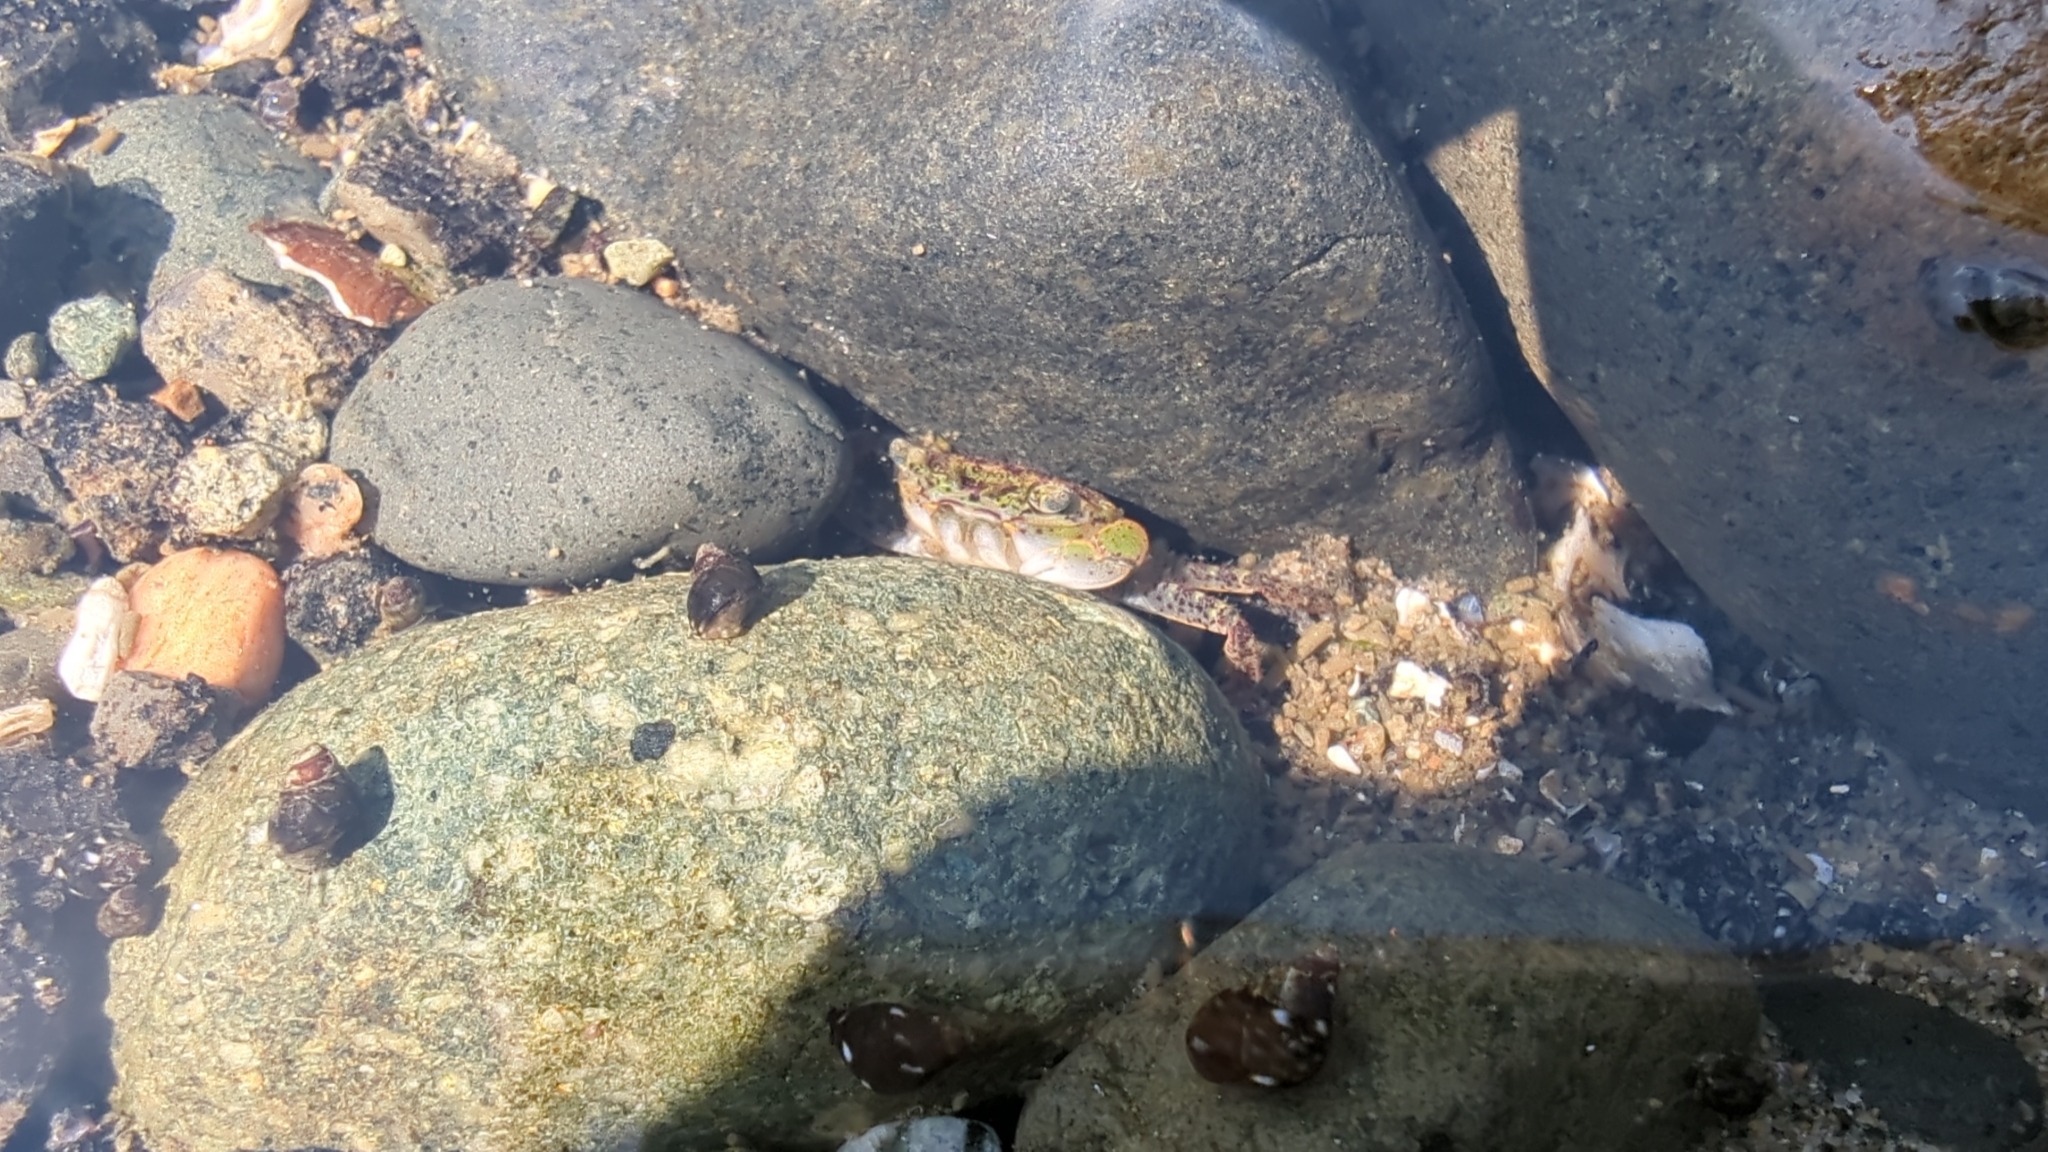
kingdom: Animalia
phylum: Arthropoda
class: Malacostraca
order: Decapoda
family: Varunidae
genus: Hemigrapsus
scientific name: Hemigrapsus oregonensis
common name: Yellow shore crab
